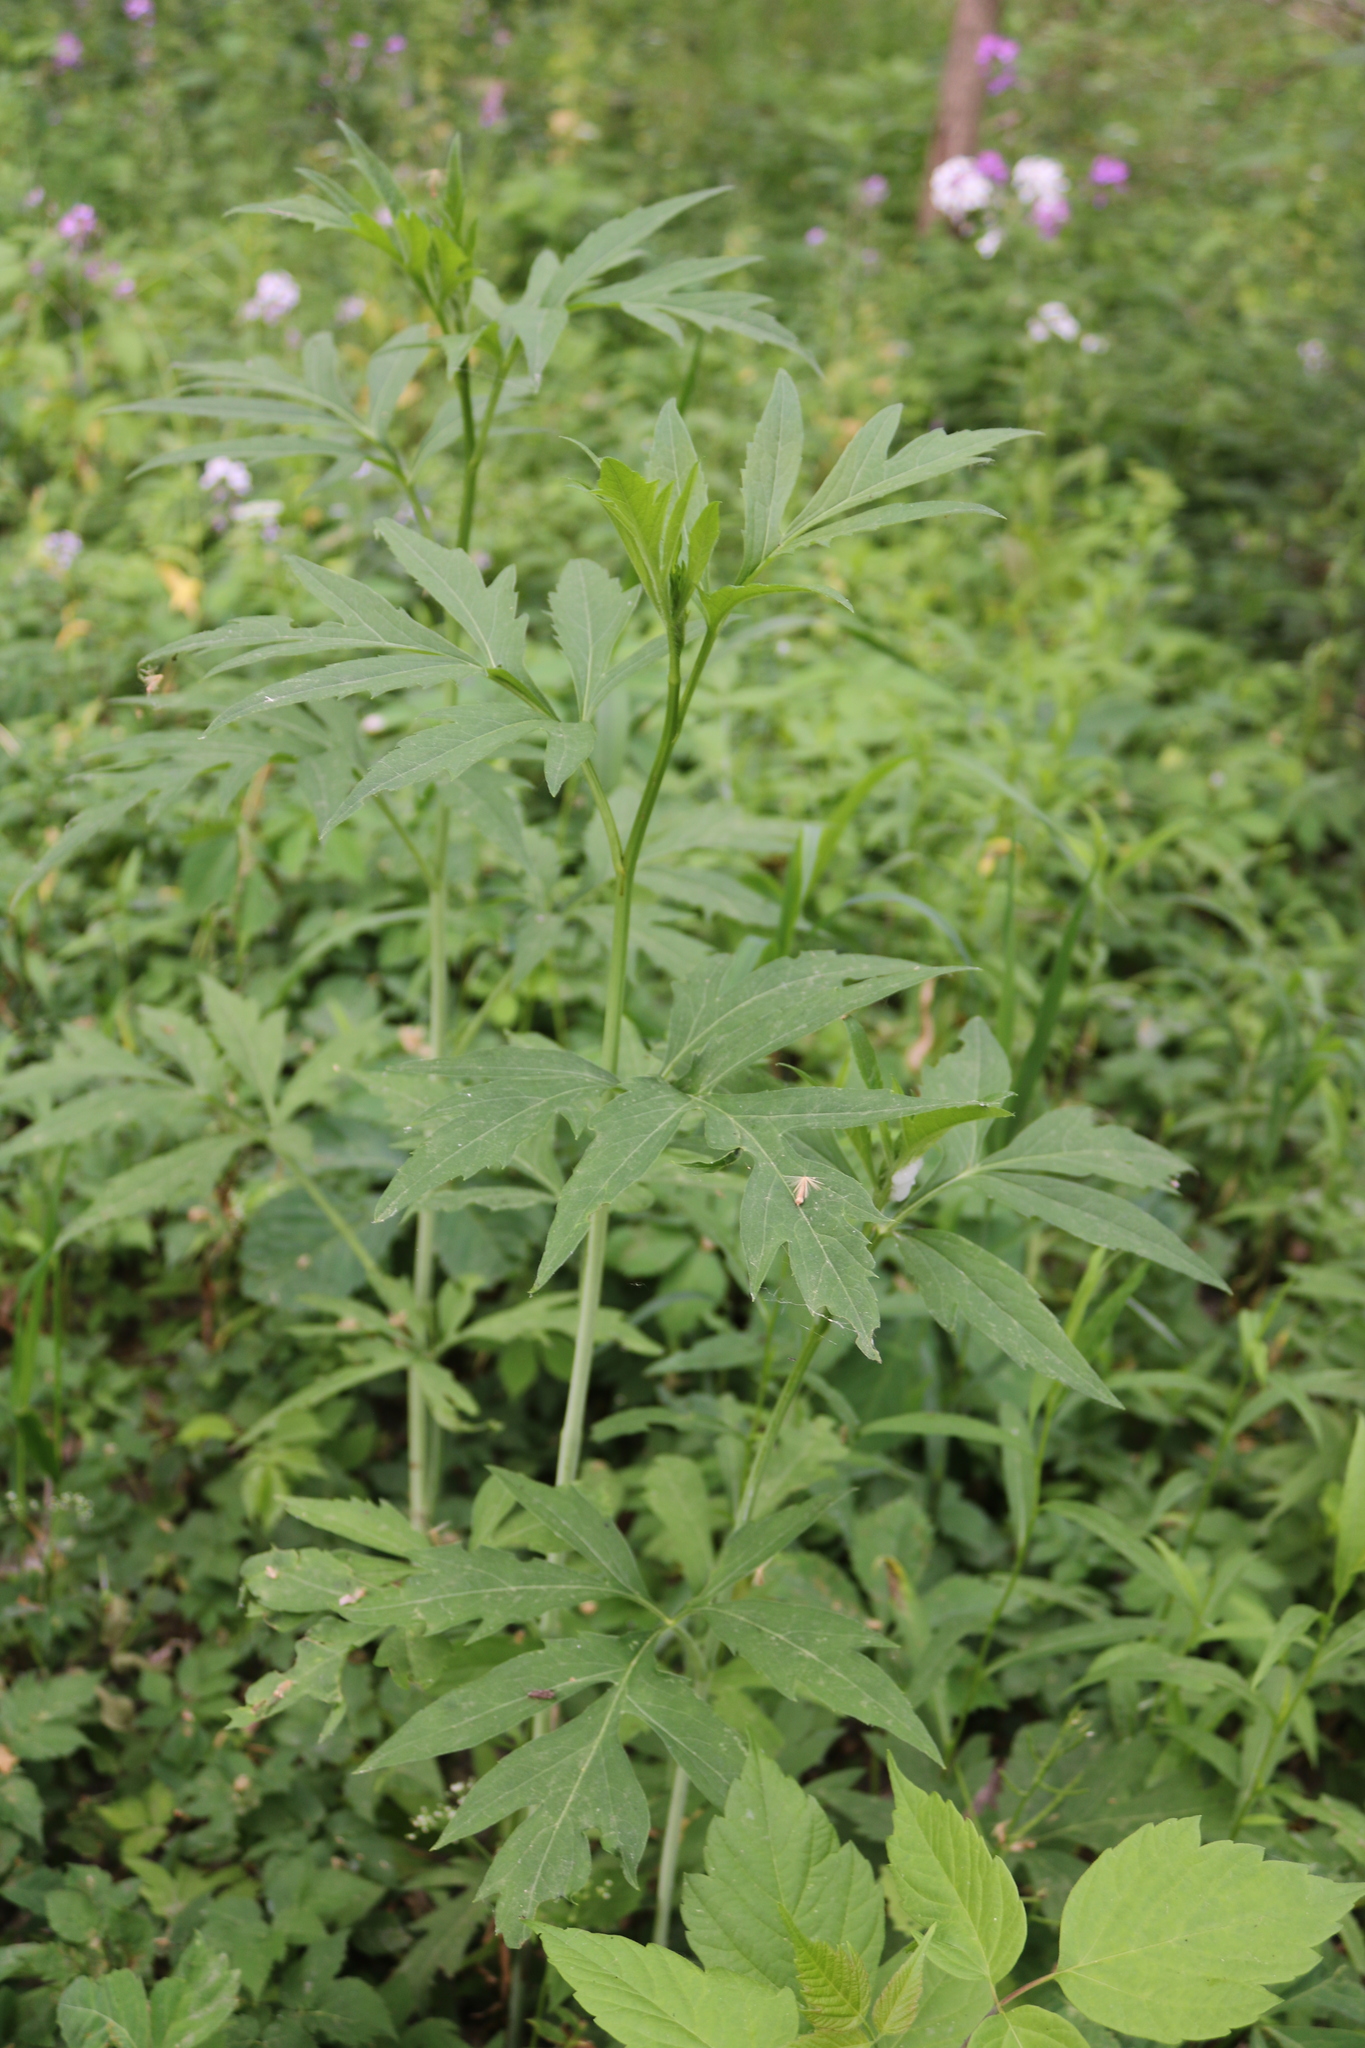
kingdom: Plantae
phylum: Tracheophyta
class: Magnoliopsida
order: Asterales
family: Asteraceae
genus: Rudbeckia
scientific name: Rudbeckia laciniata
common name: Coneflower
